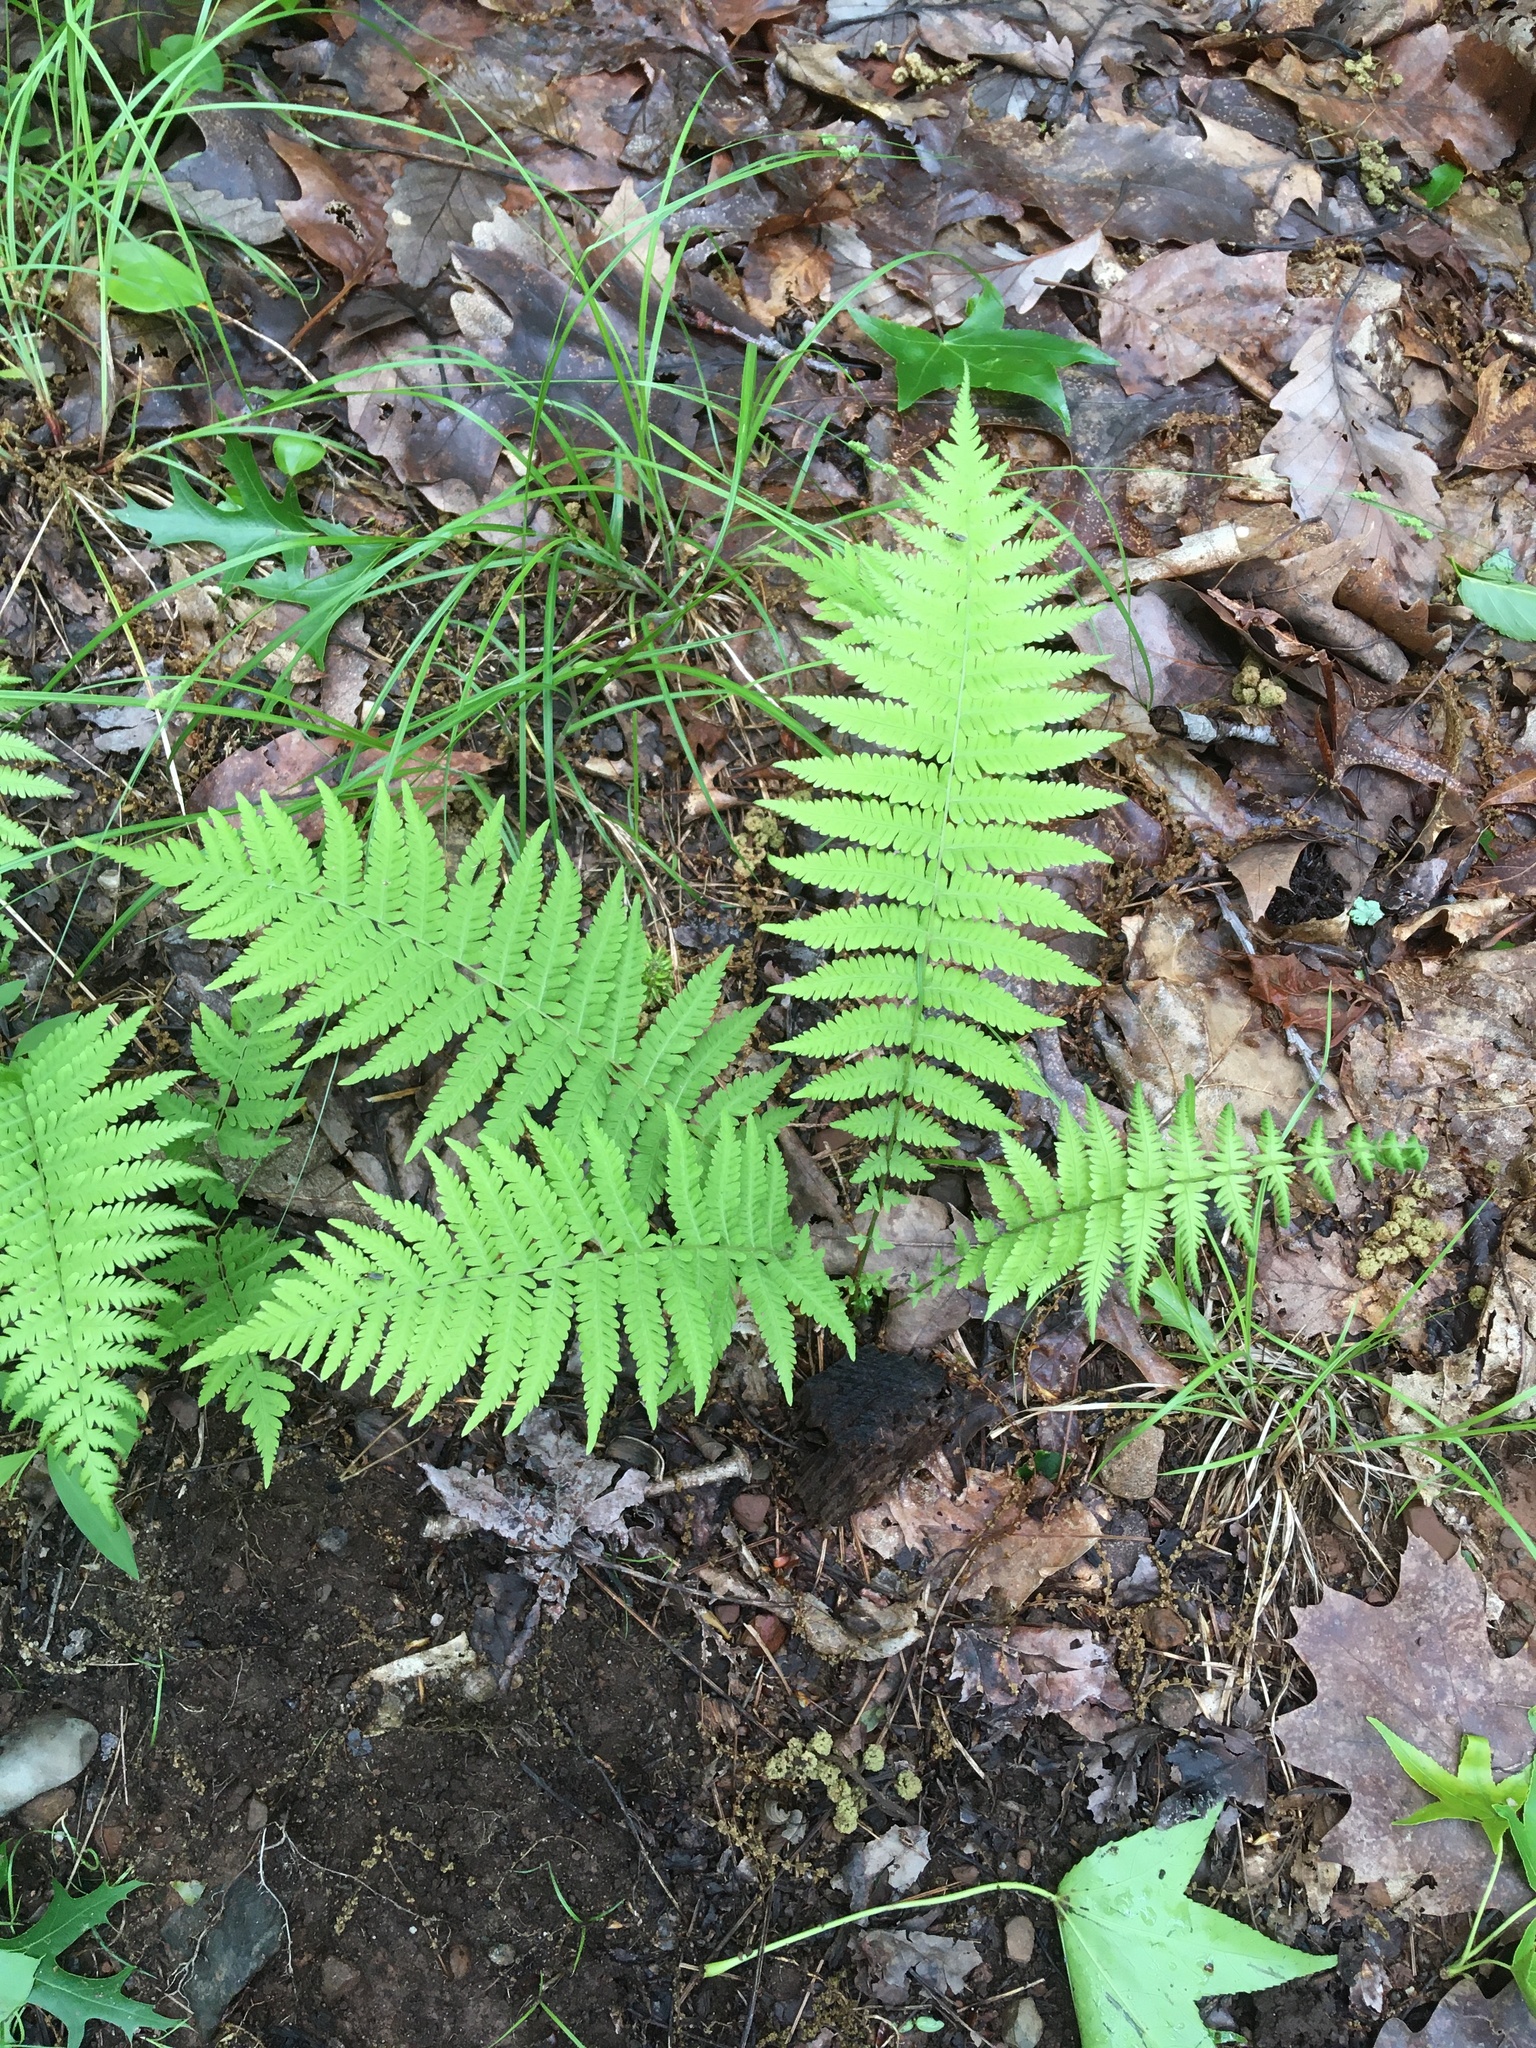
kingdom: Plantae
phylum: Tracheophyta
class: Polypodiopsida
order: Polypodiales
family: Thelypteridaceae
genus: Amauropelta
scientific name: Amauropelta noveboracensis
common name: New york fern
